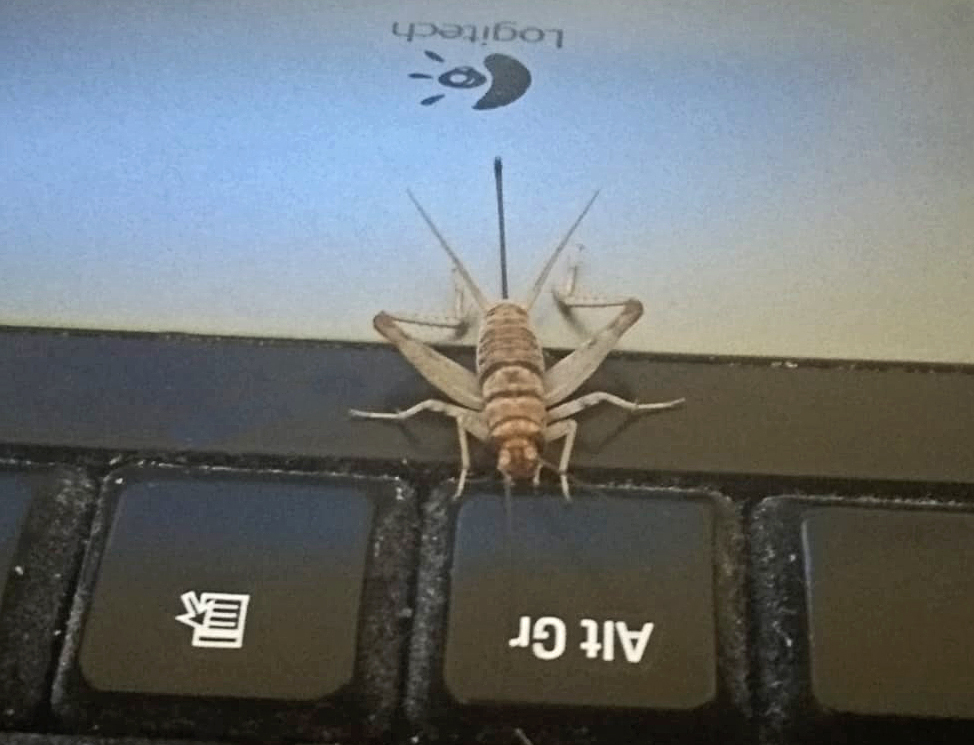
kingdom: Animalia
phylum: Arthropoda
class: Insecta
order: Orthoptera
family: Gryllidae
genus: Gryllodes
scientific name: Gryllodes sigillatus
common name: Tropical house cricket
